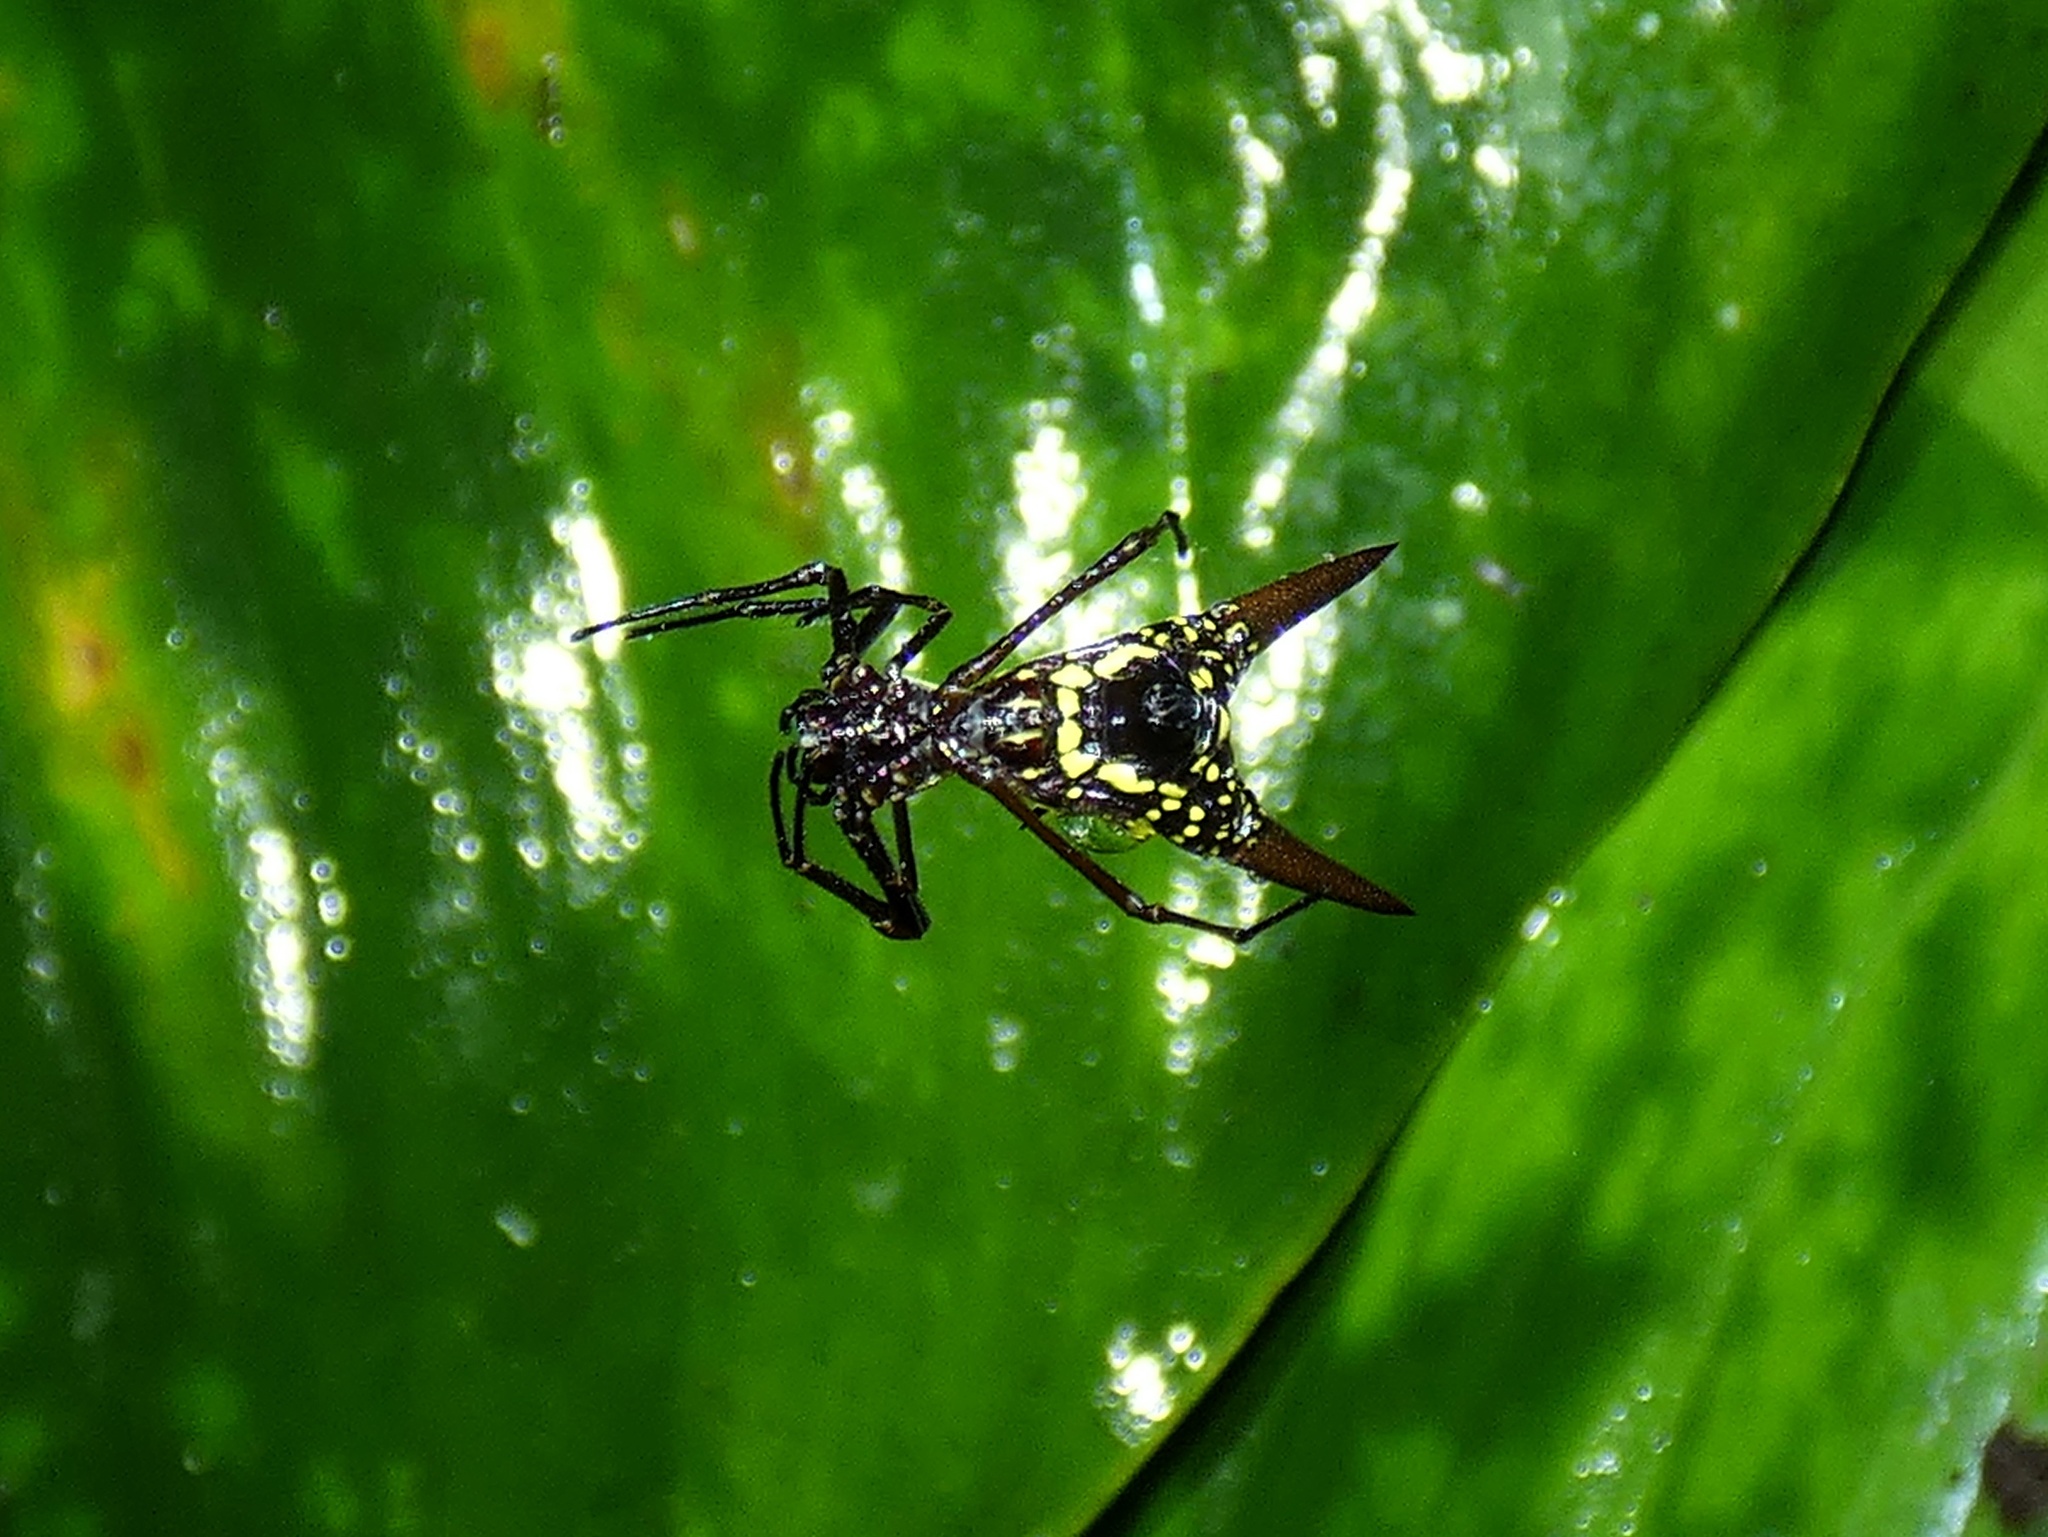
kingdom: Animalia
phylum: Arthropoda
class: Arachnida
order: Araneae
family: Araneidae
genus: Micrathena
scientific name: Micrathena sexspinosa
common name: Orb weavers
